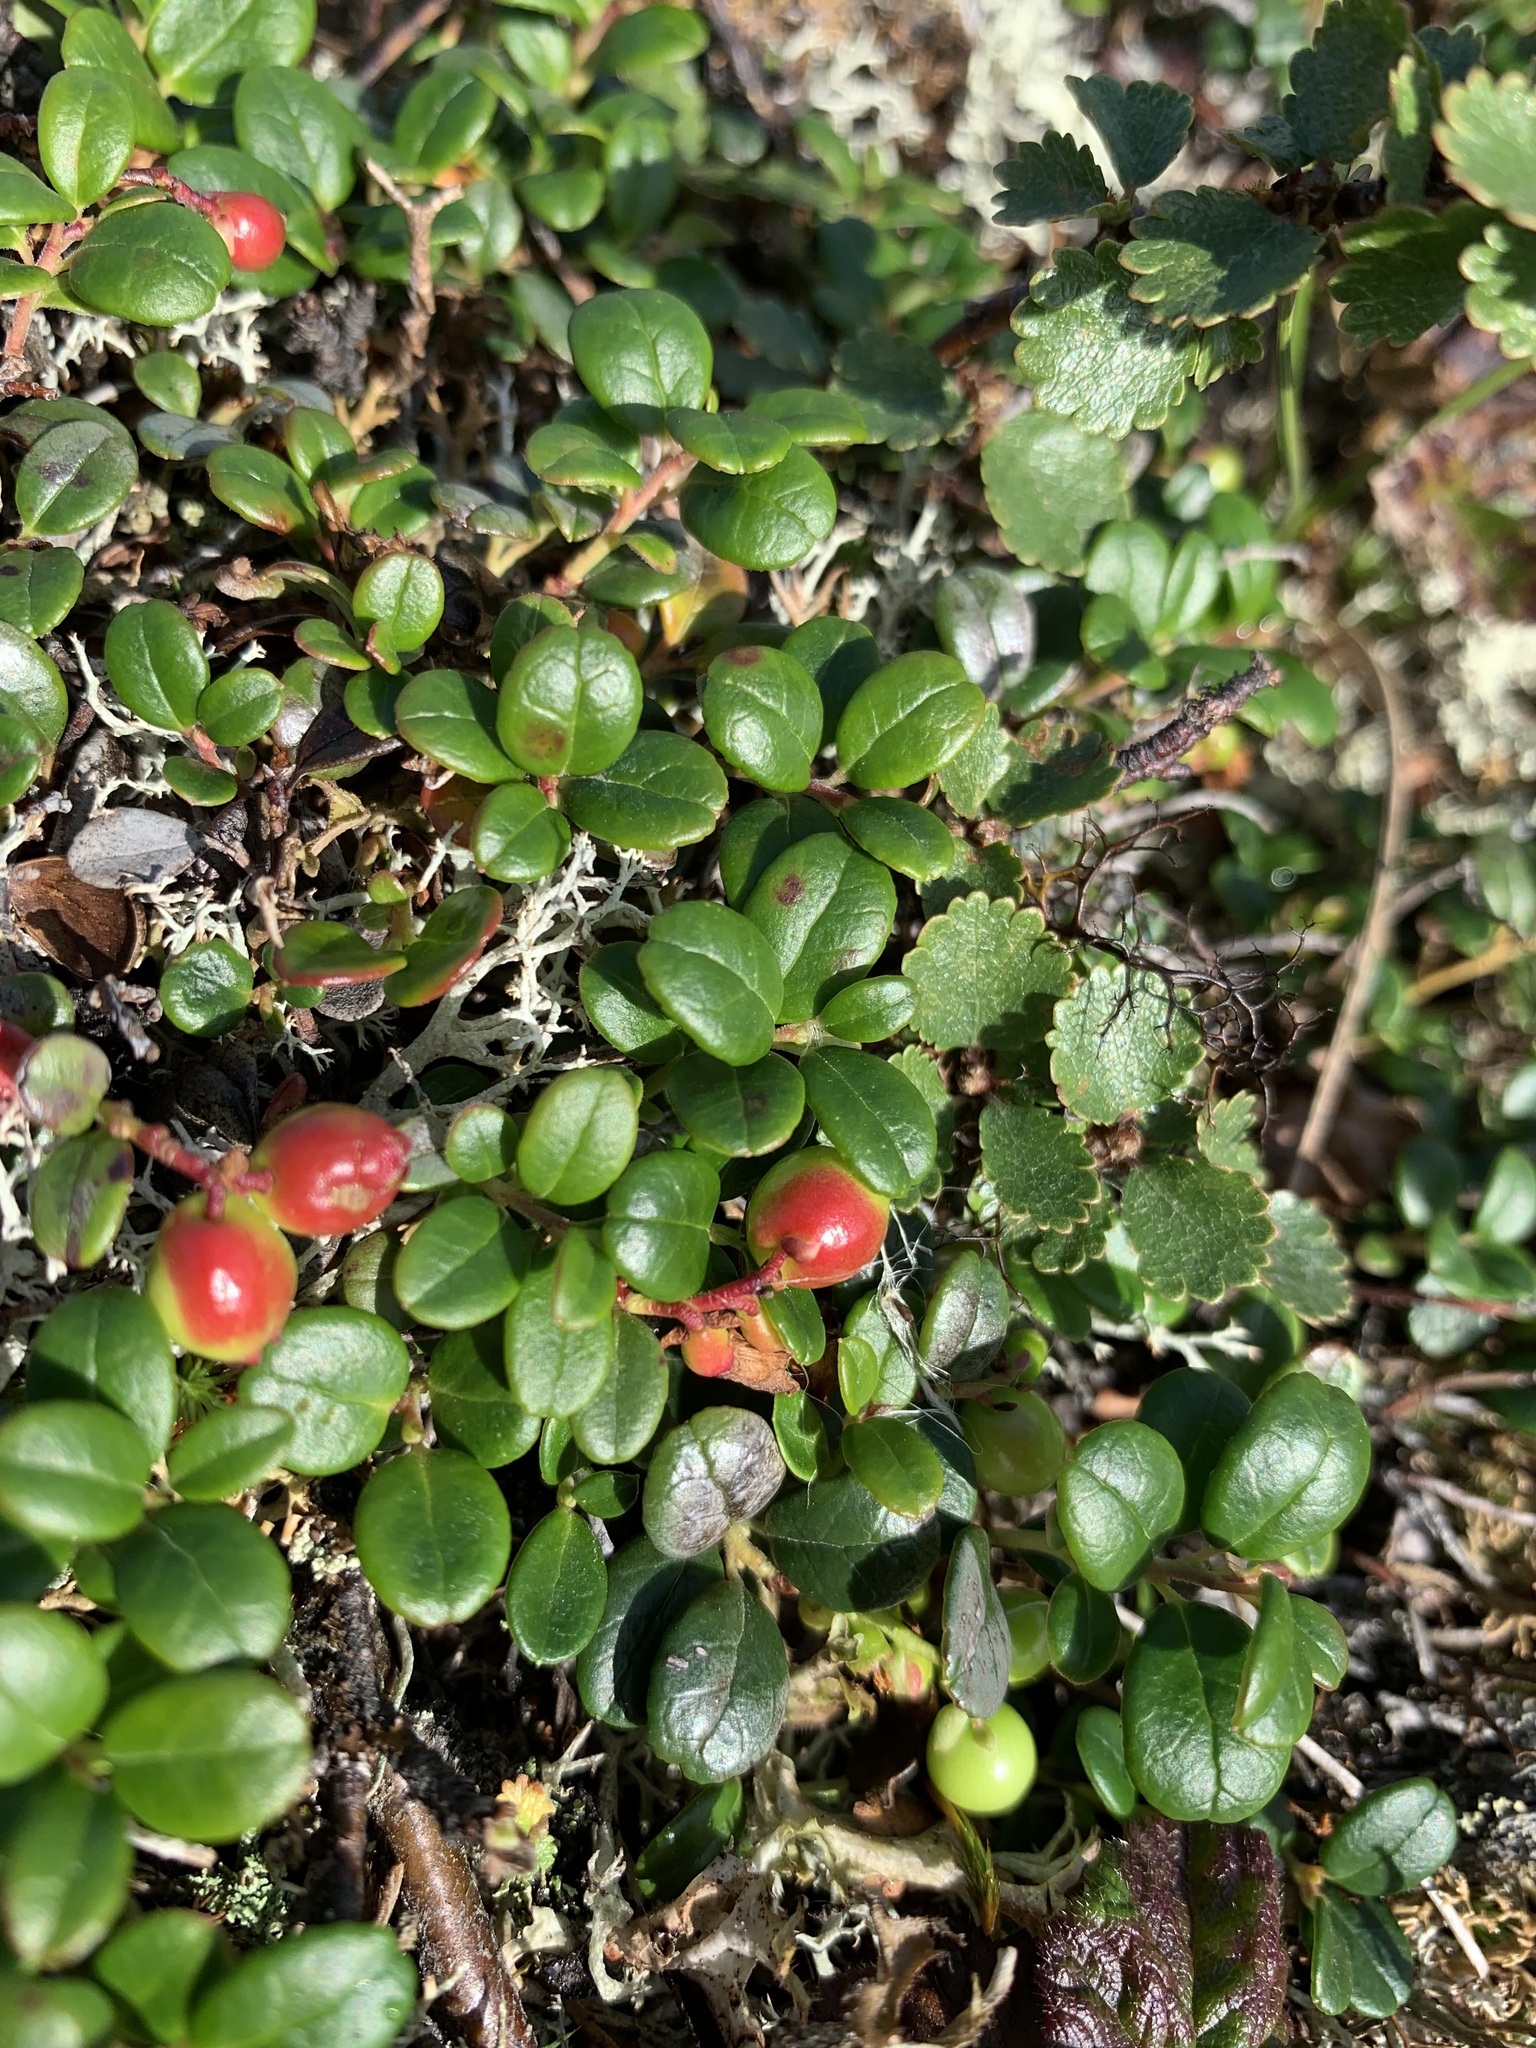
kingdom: Plantae
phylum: Tracheophyta
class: Magnoliopsida
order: Ericales
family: Ericaceae
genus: Vaccinium
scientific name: Vaccinium vitis-idaea
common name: Cowberry
